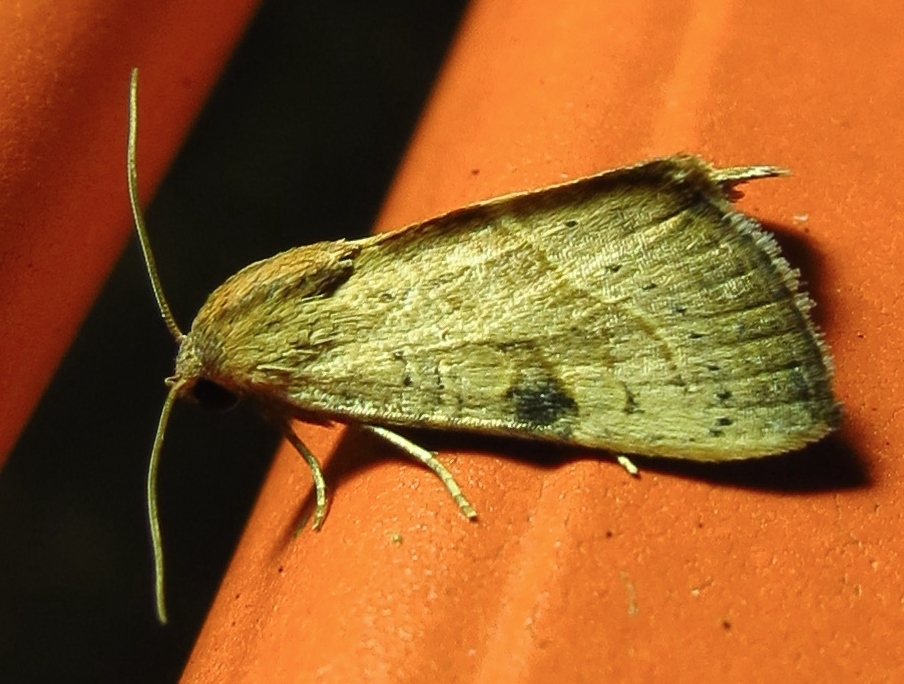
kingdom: Animalia
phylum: Arthropoda
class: Insecta
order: Lepidoptera
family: Noctuidae
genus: Galgula
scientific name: Galgula partita
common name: Wedgeling
